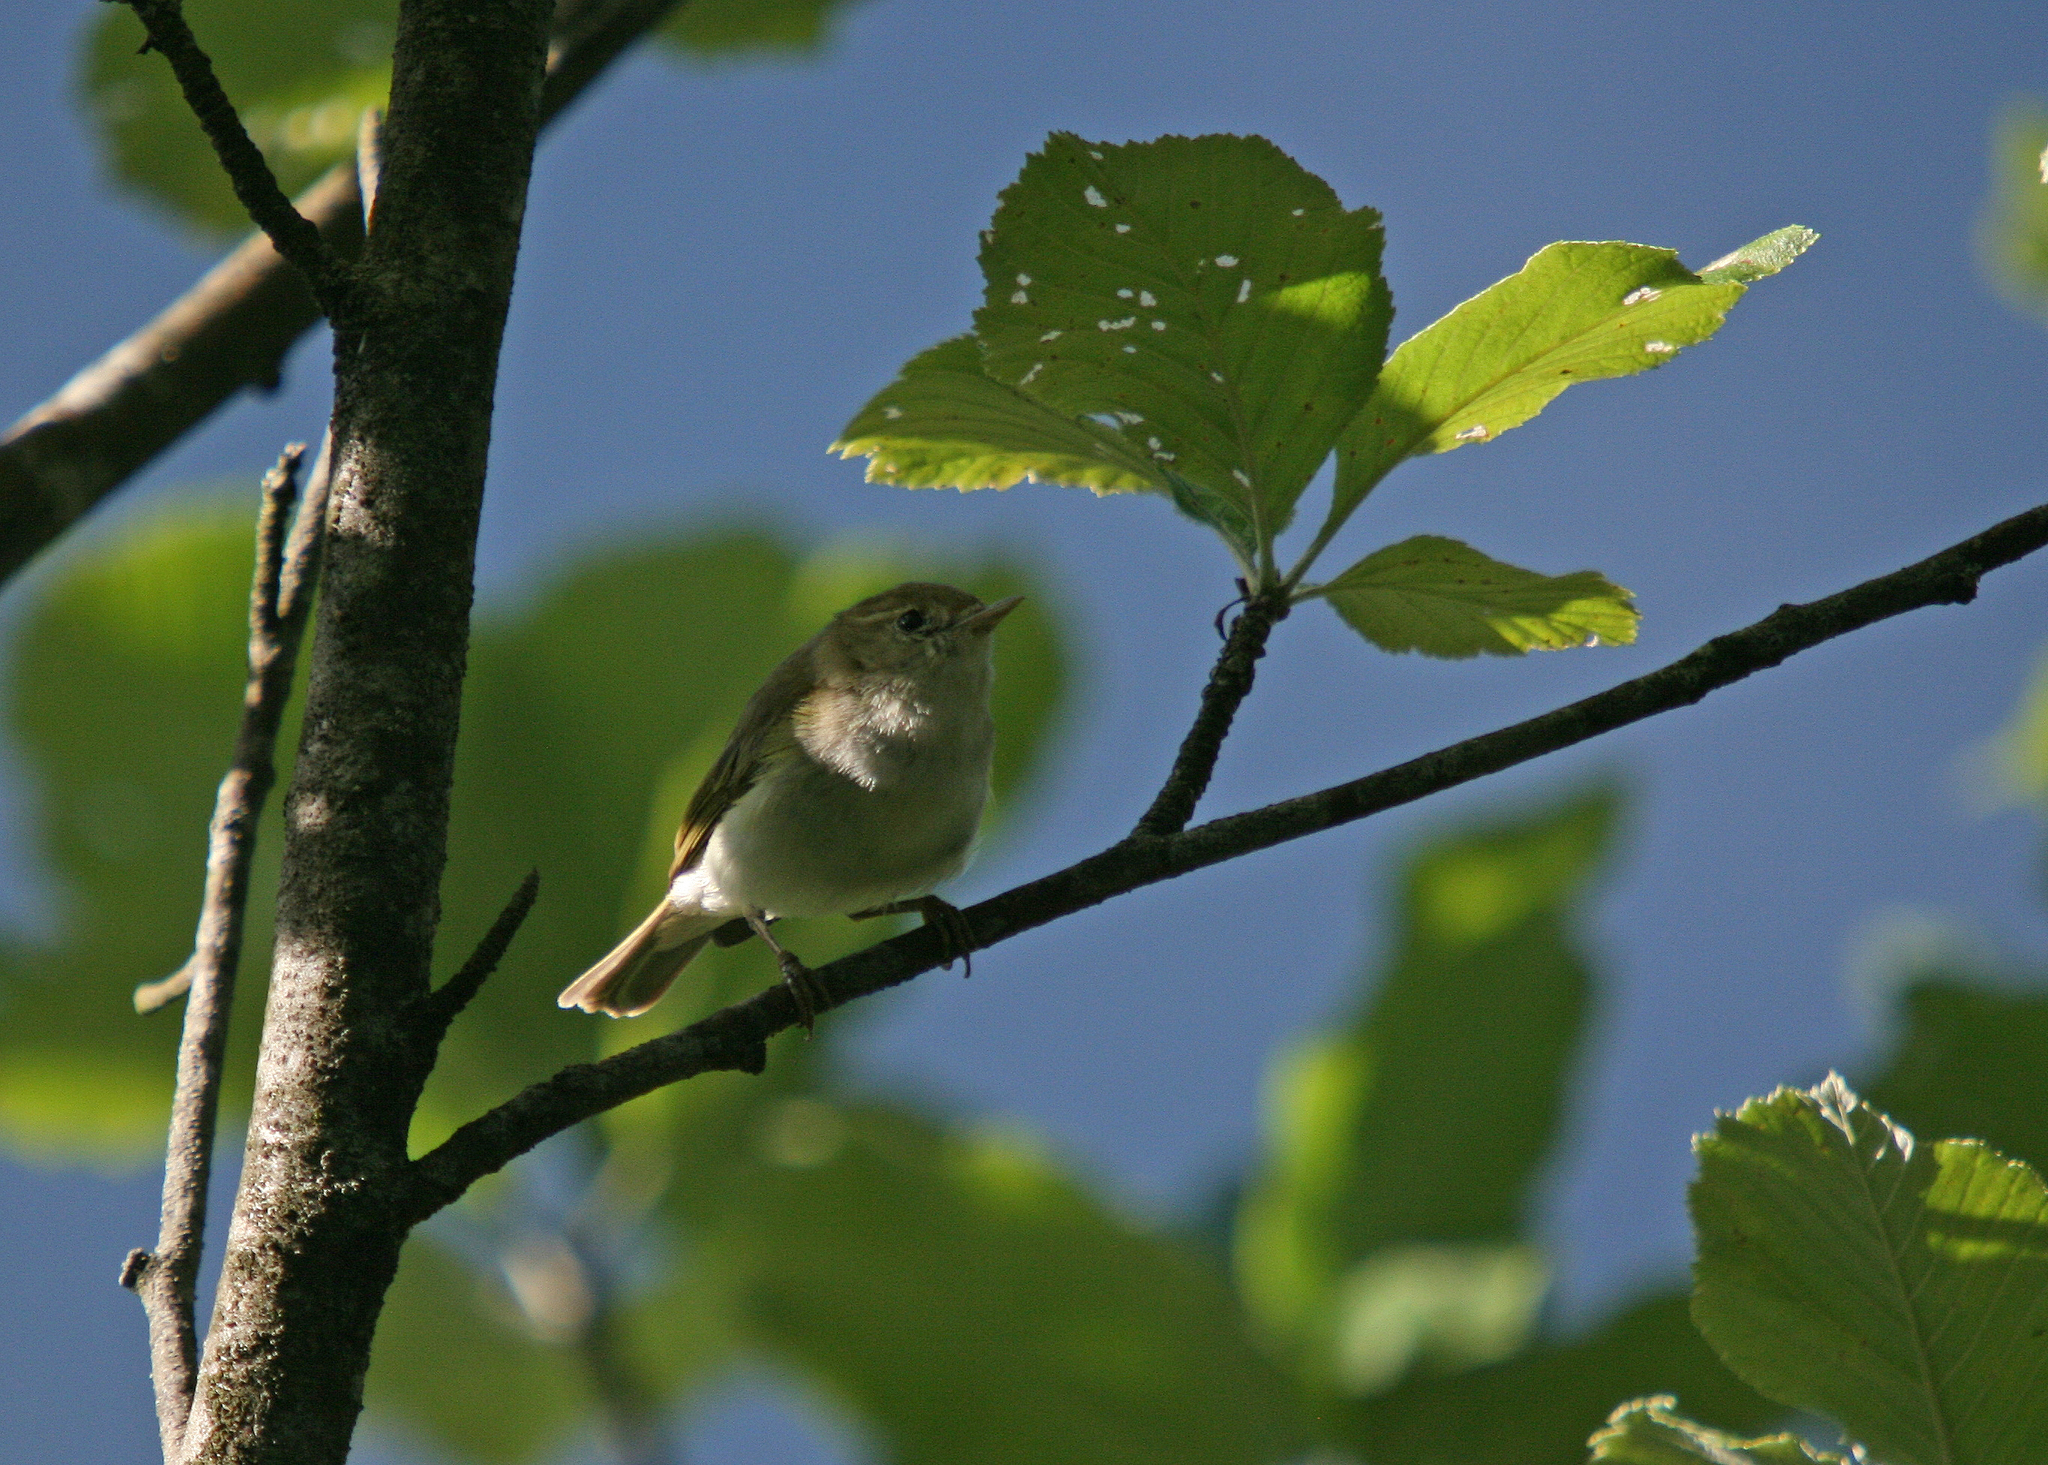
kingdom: Animalia
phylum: Chordata
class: Aves
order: Passeriformes
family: Phylloscopidae
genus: Phylloscopus
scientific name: Phylloscopus bonelli
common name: Western bonelli's warbler
